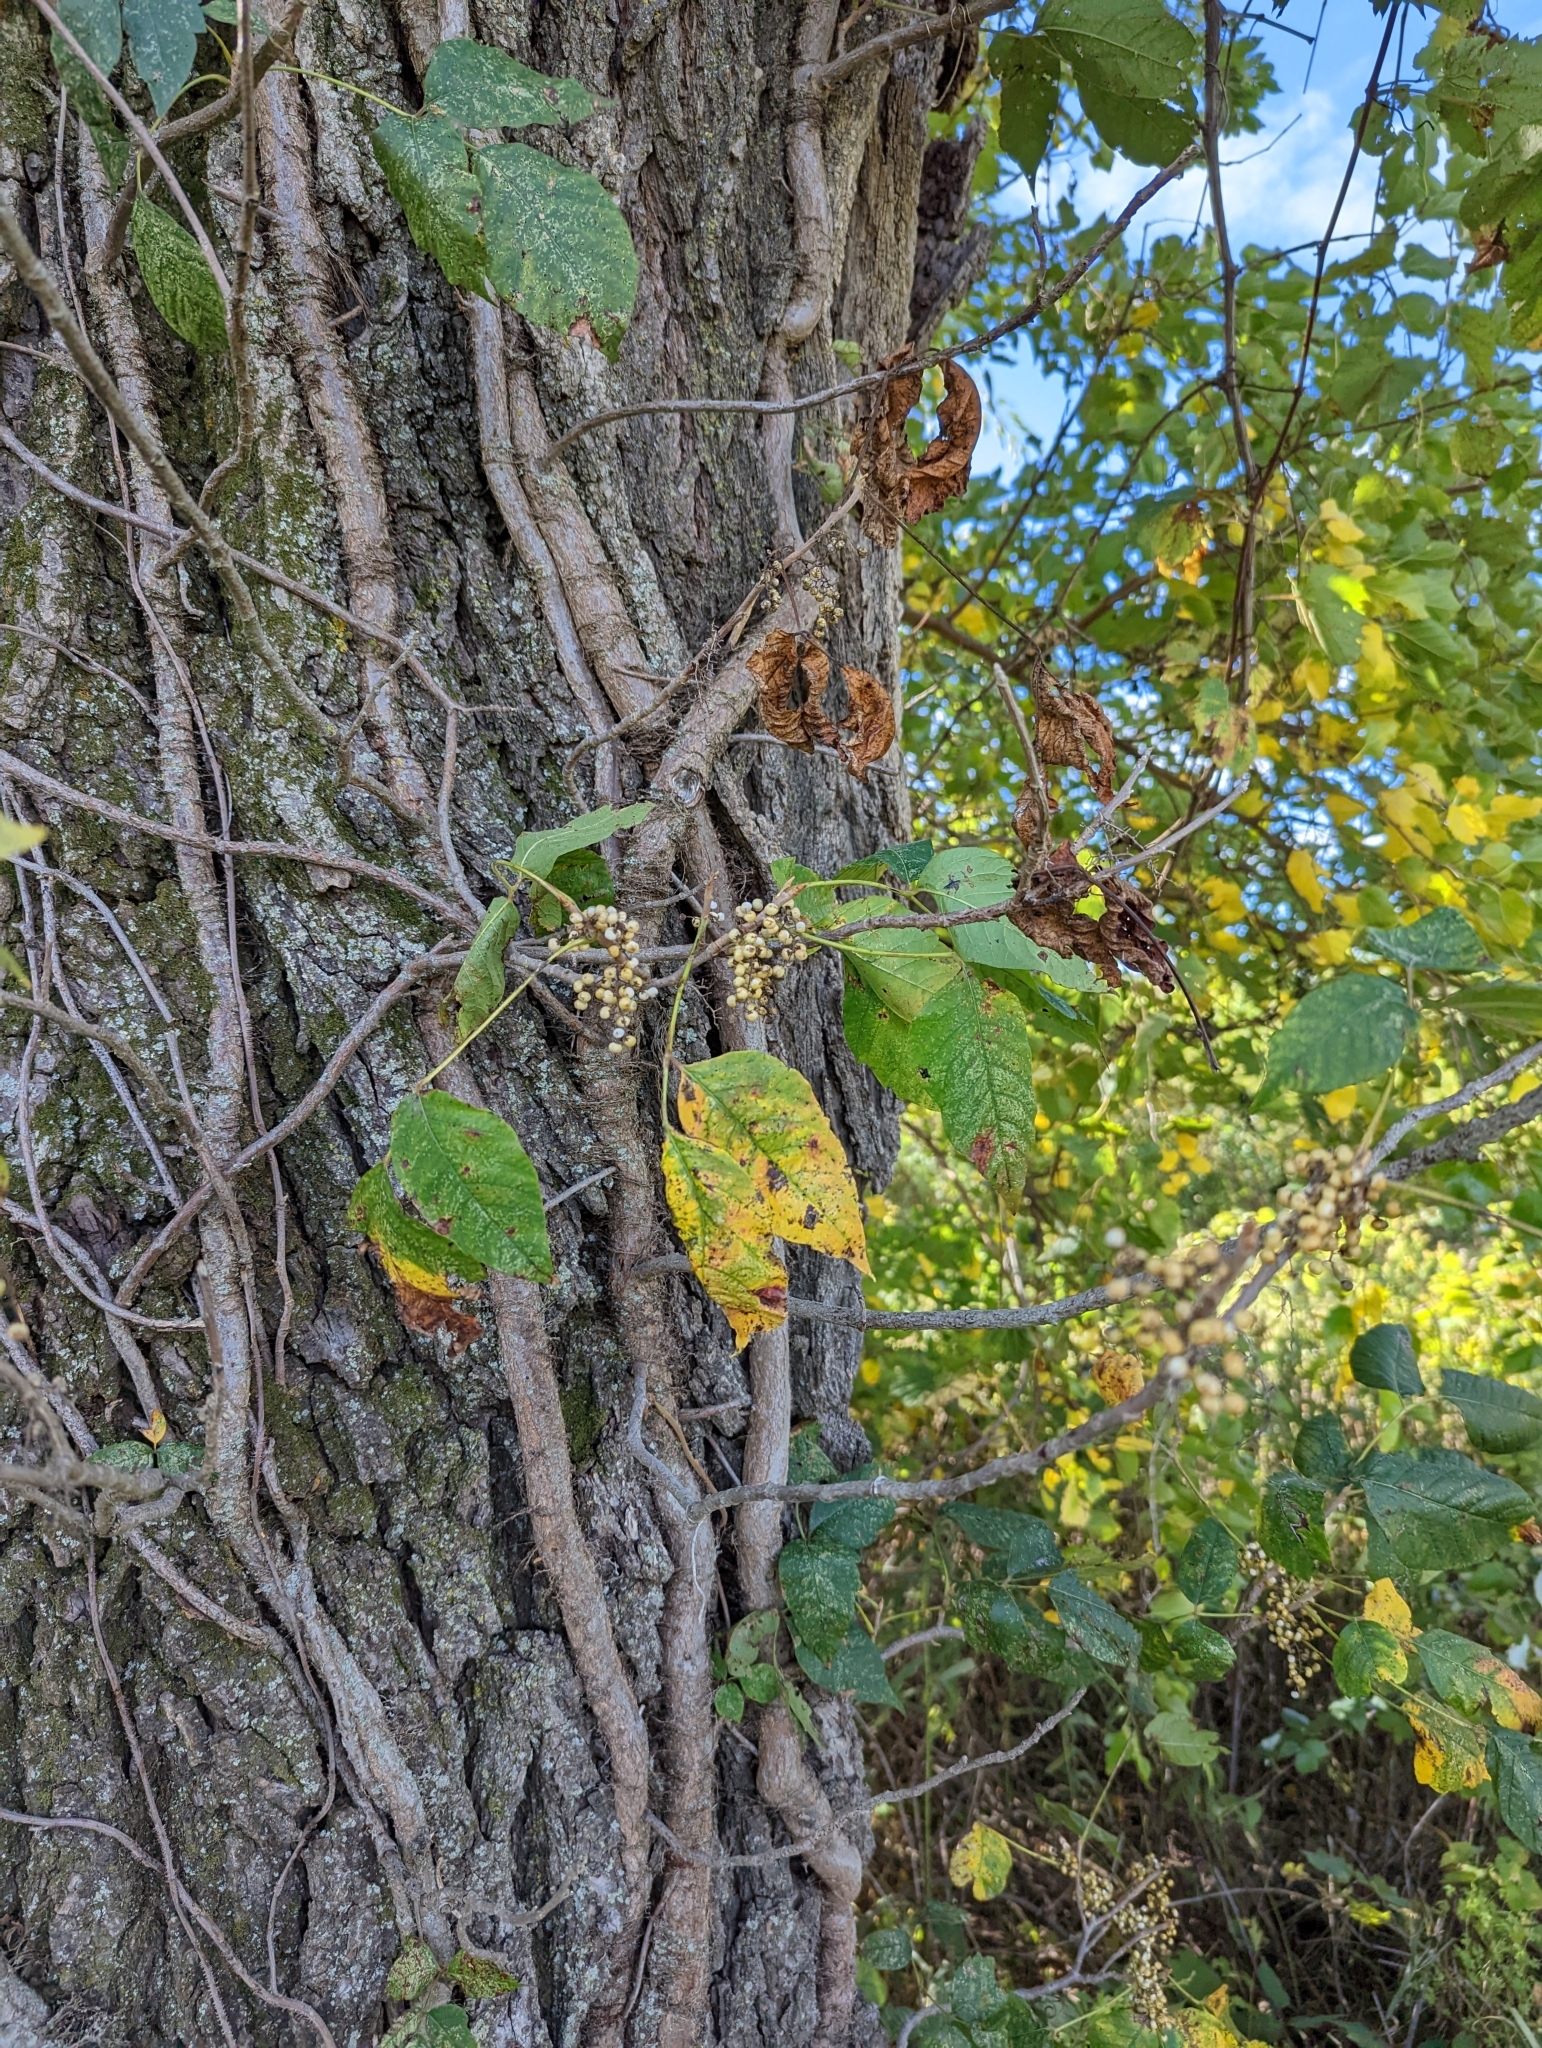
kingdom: Plantae
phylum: Tracheophyta
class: Magnoliopsida
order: Sapindales
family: Anacardiaceae
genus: Toxicodendron
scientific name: Toxicodendron radicans
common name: Poison ivy
